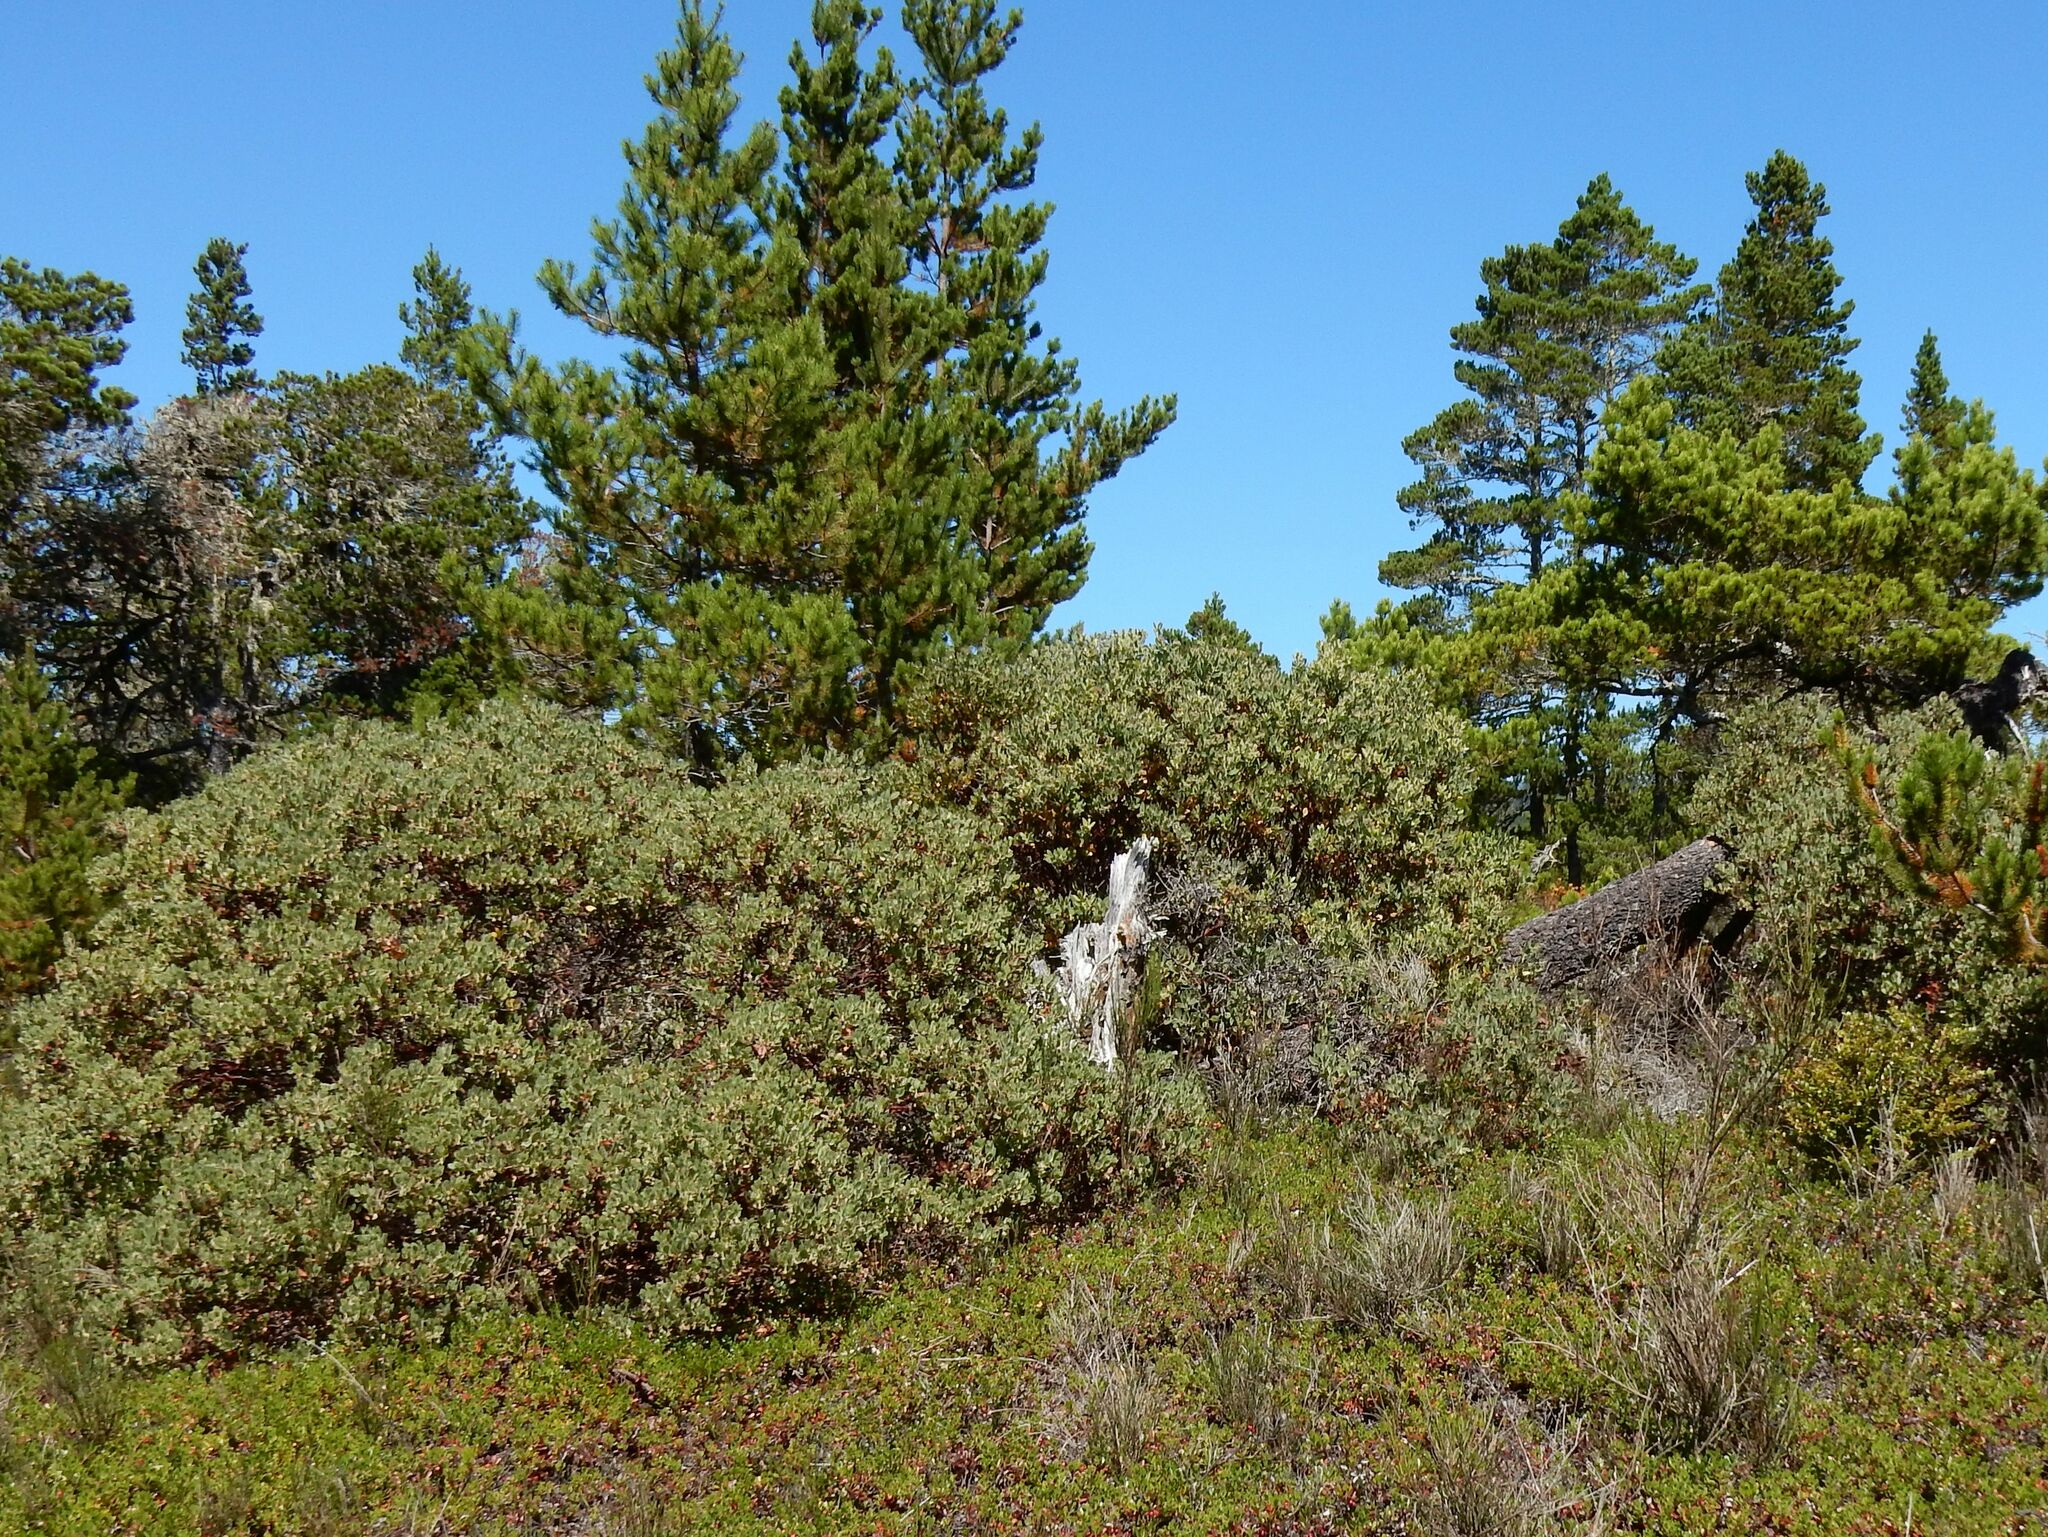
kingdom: Plantae
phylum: Tracheophyta
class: Magnoliopsida
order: Ericales
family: Ericaceae
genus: Arctostaphylos
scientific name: Arctostaphylos columbiana
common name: Bristly bearberry
